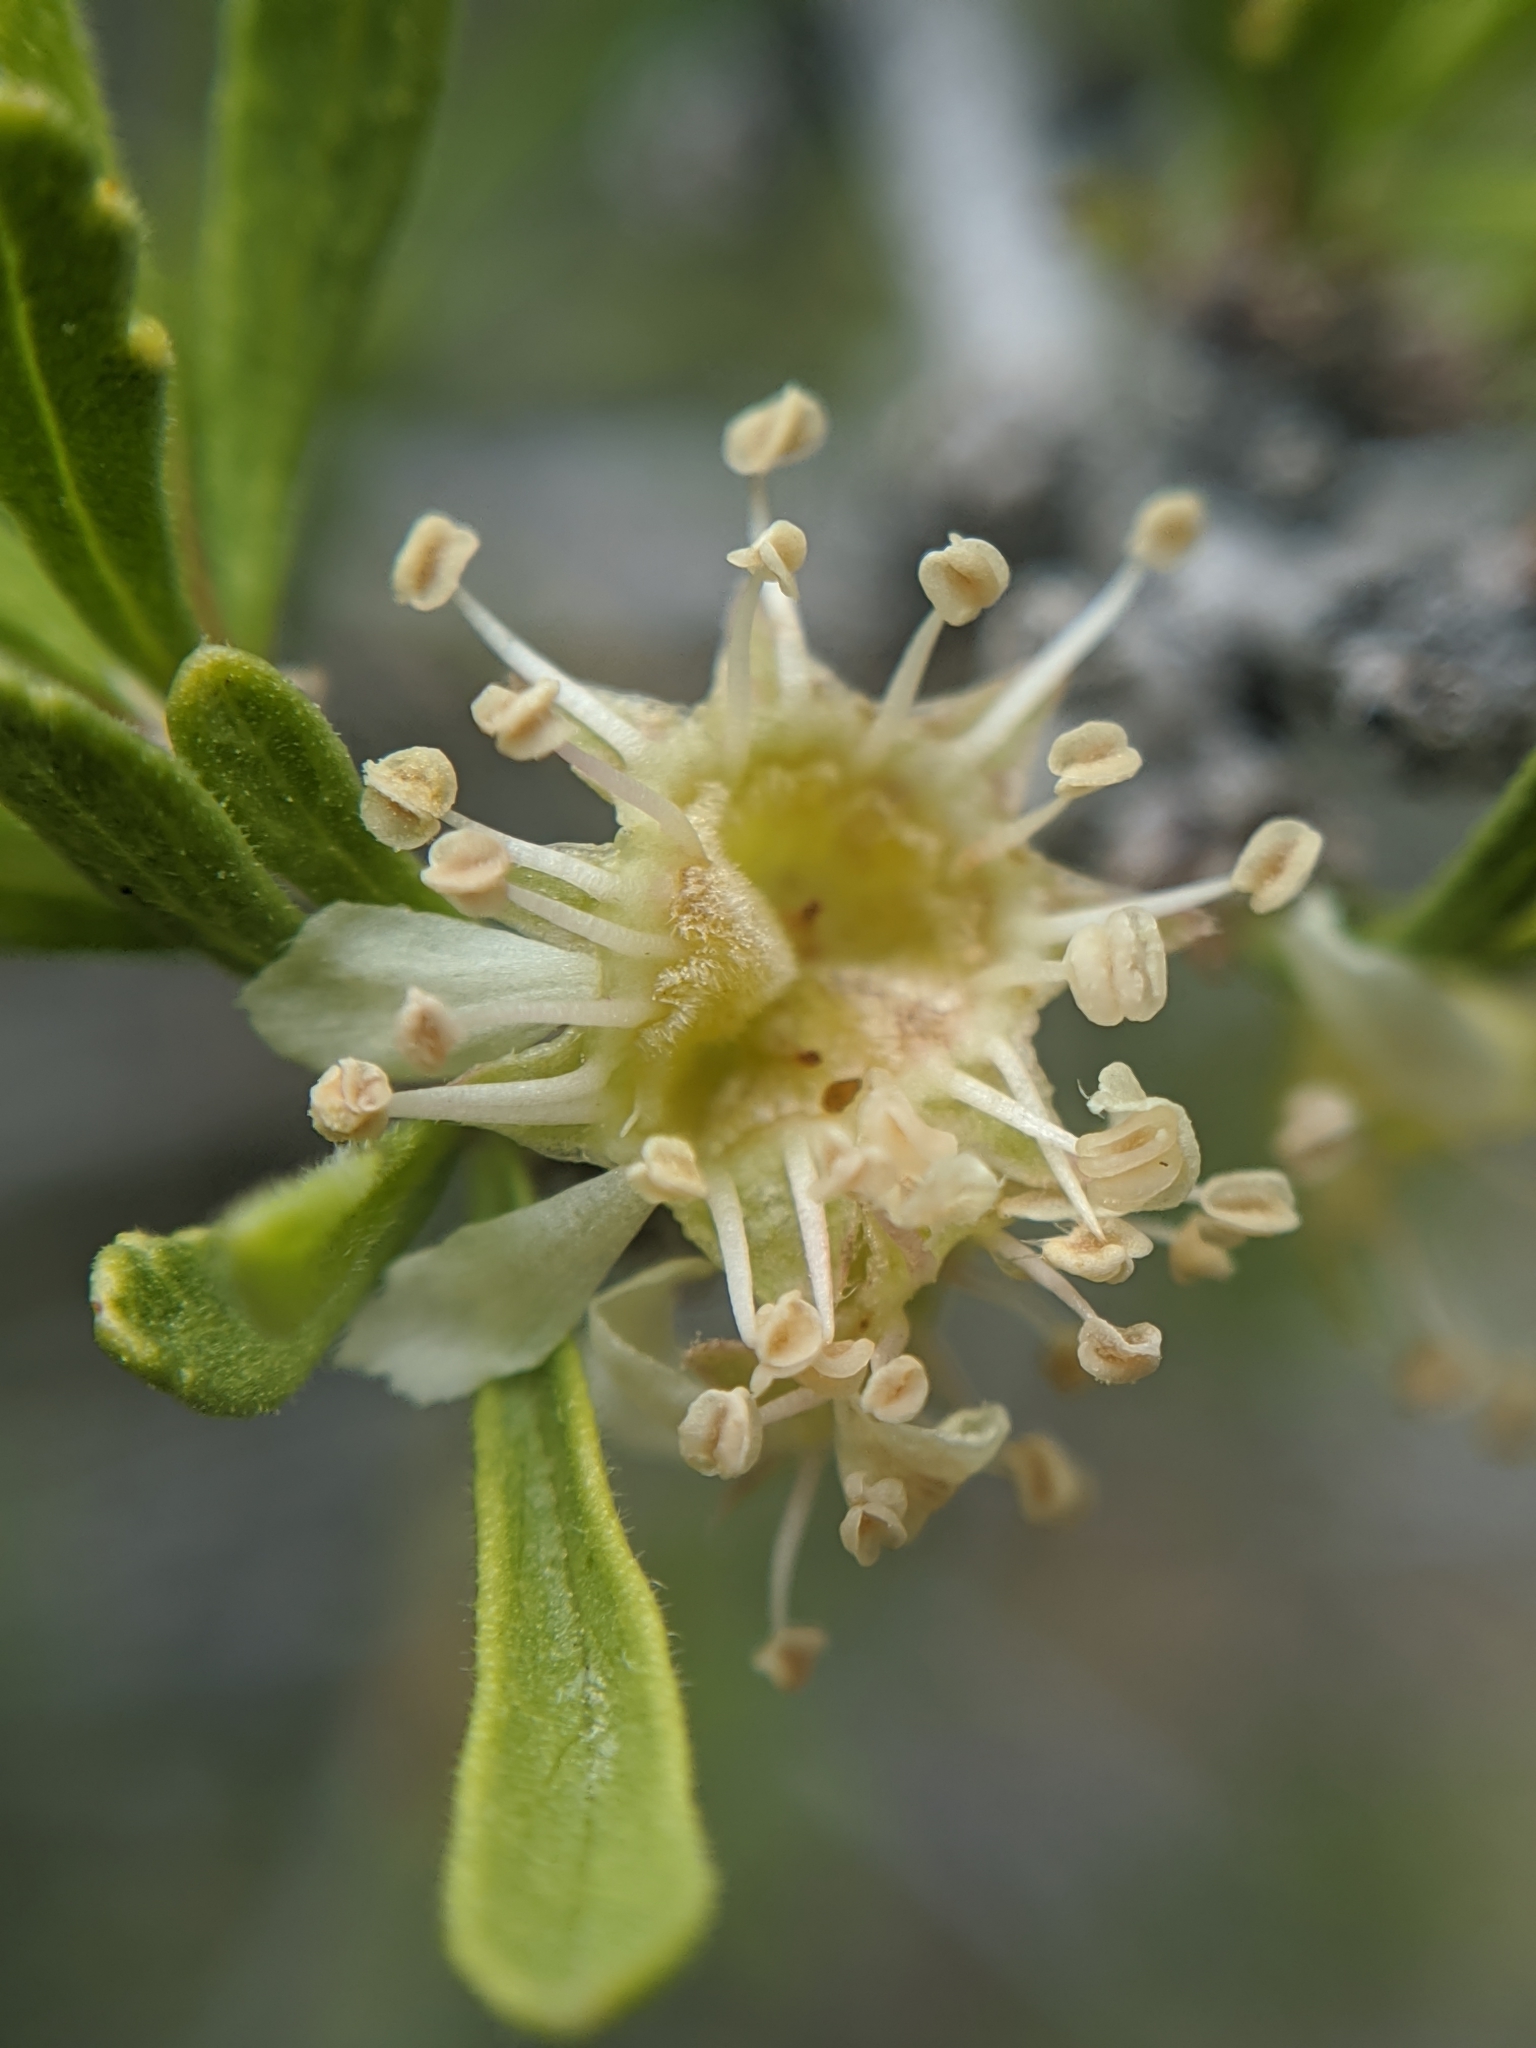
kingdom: Plantae
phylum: Tracheophyta
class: Magnoliopsida
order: Rosales
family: Rosaceae
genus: Prunus
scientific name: Prunus fasciculata
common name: Desert almond
